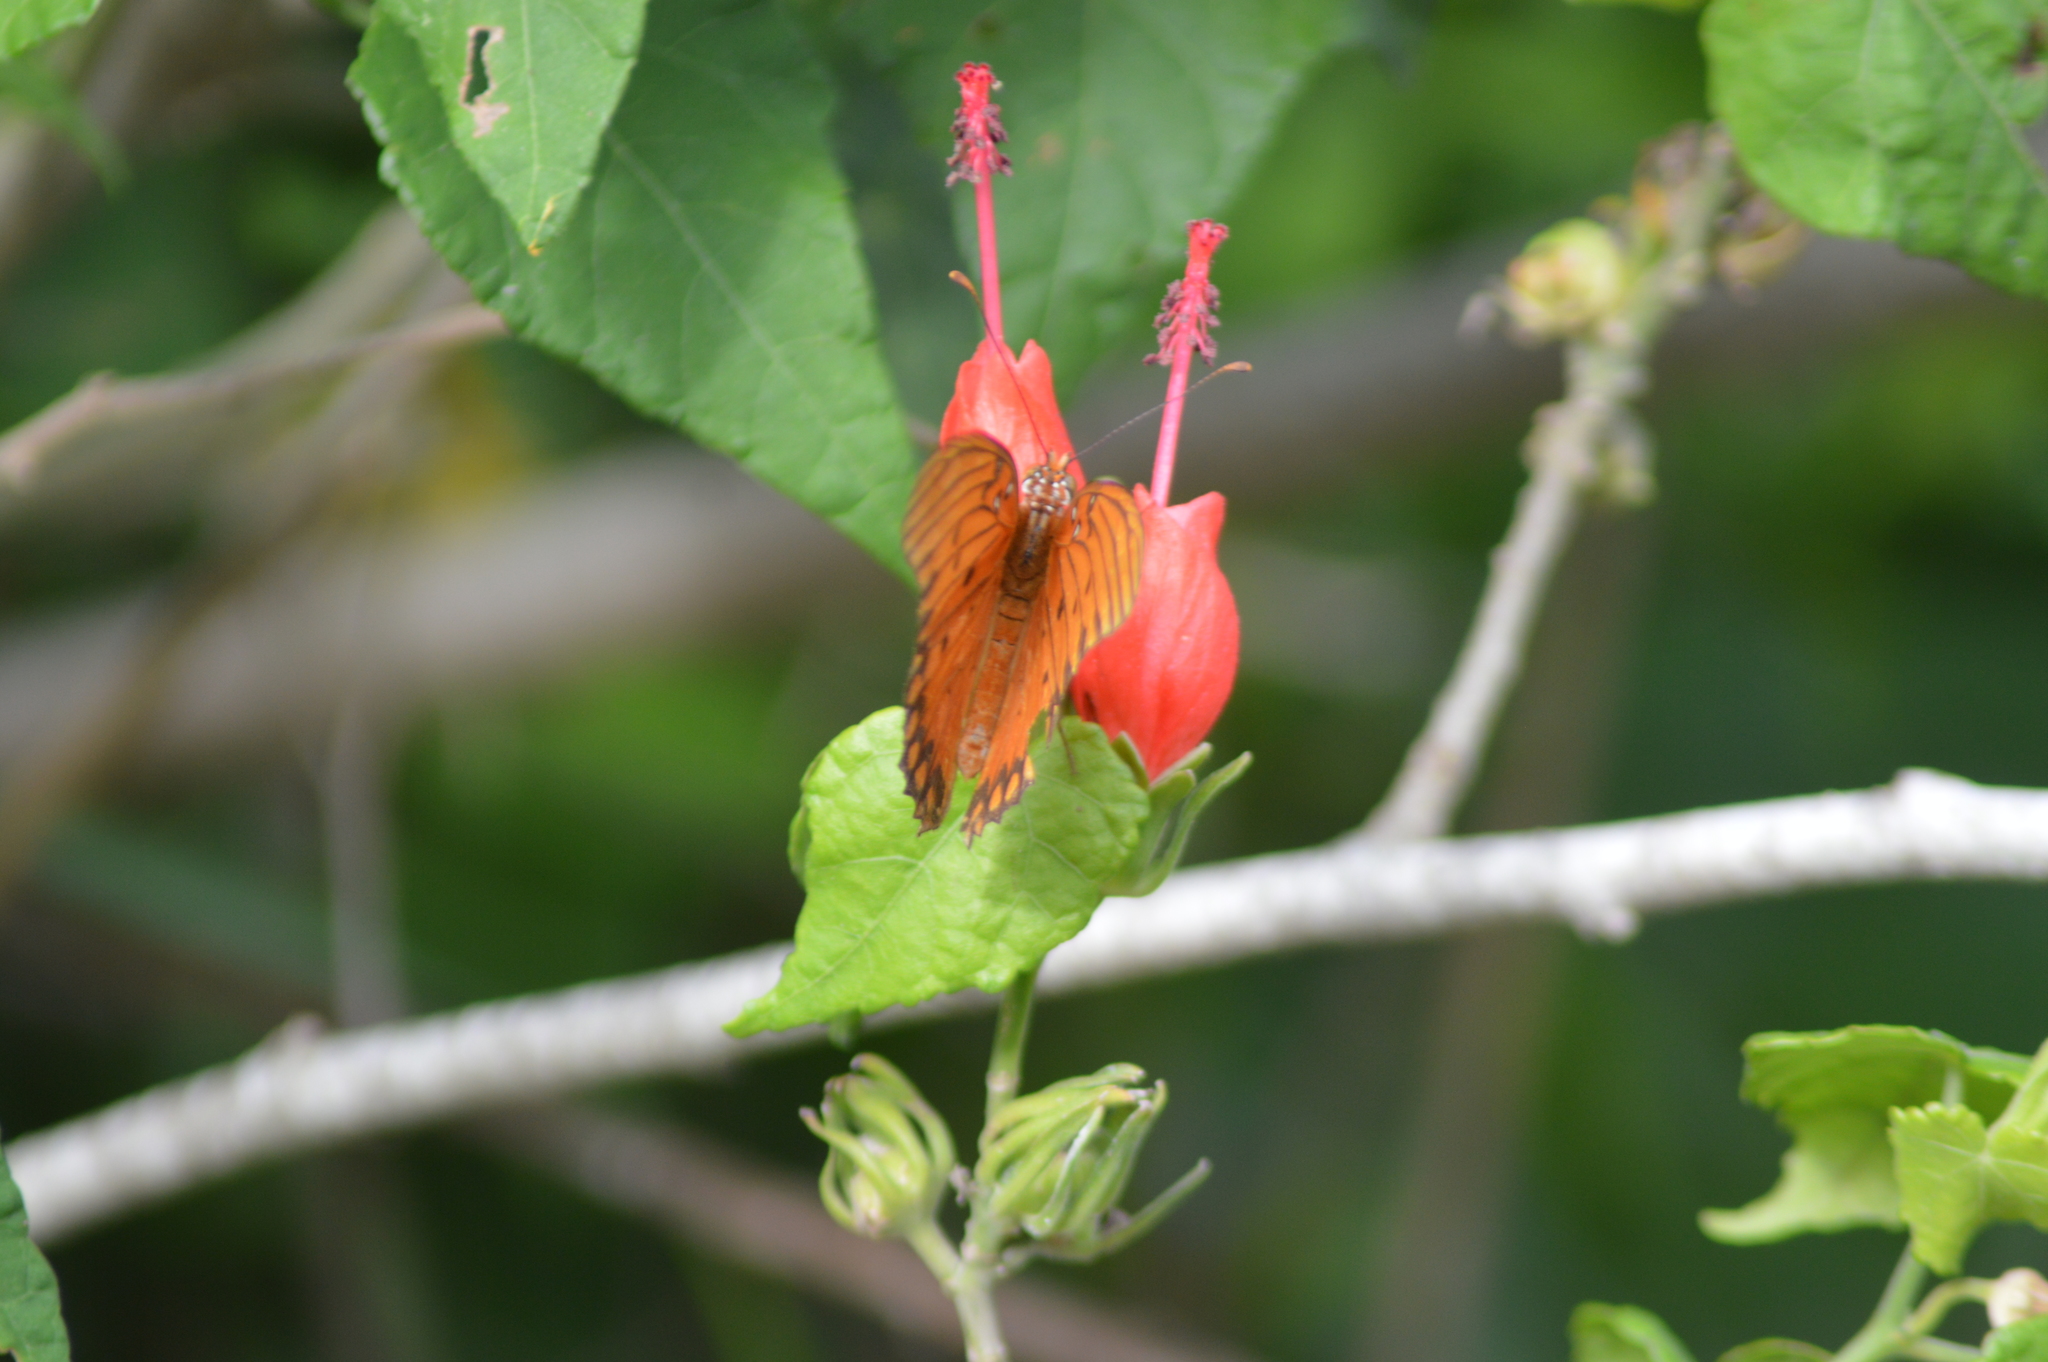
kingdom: Animalia
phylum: Arthropoda
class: Insecta
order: Lepidoptera
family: Nymphalidae
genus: Dione
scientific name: Dione vanillae
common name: Gulf fritillary
